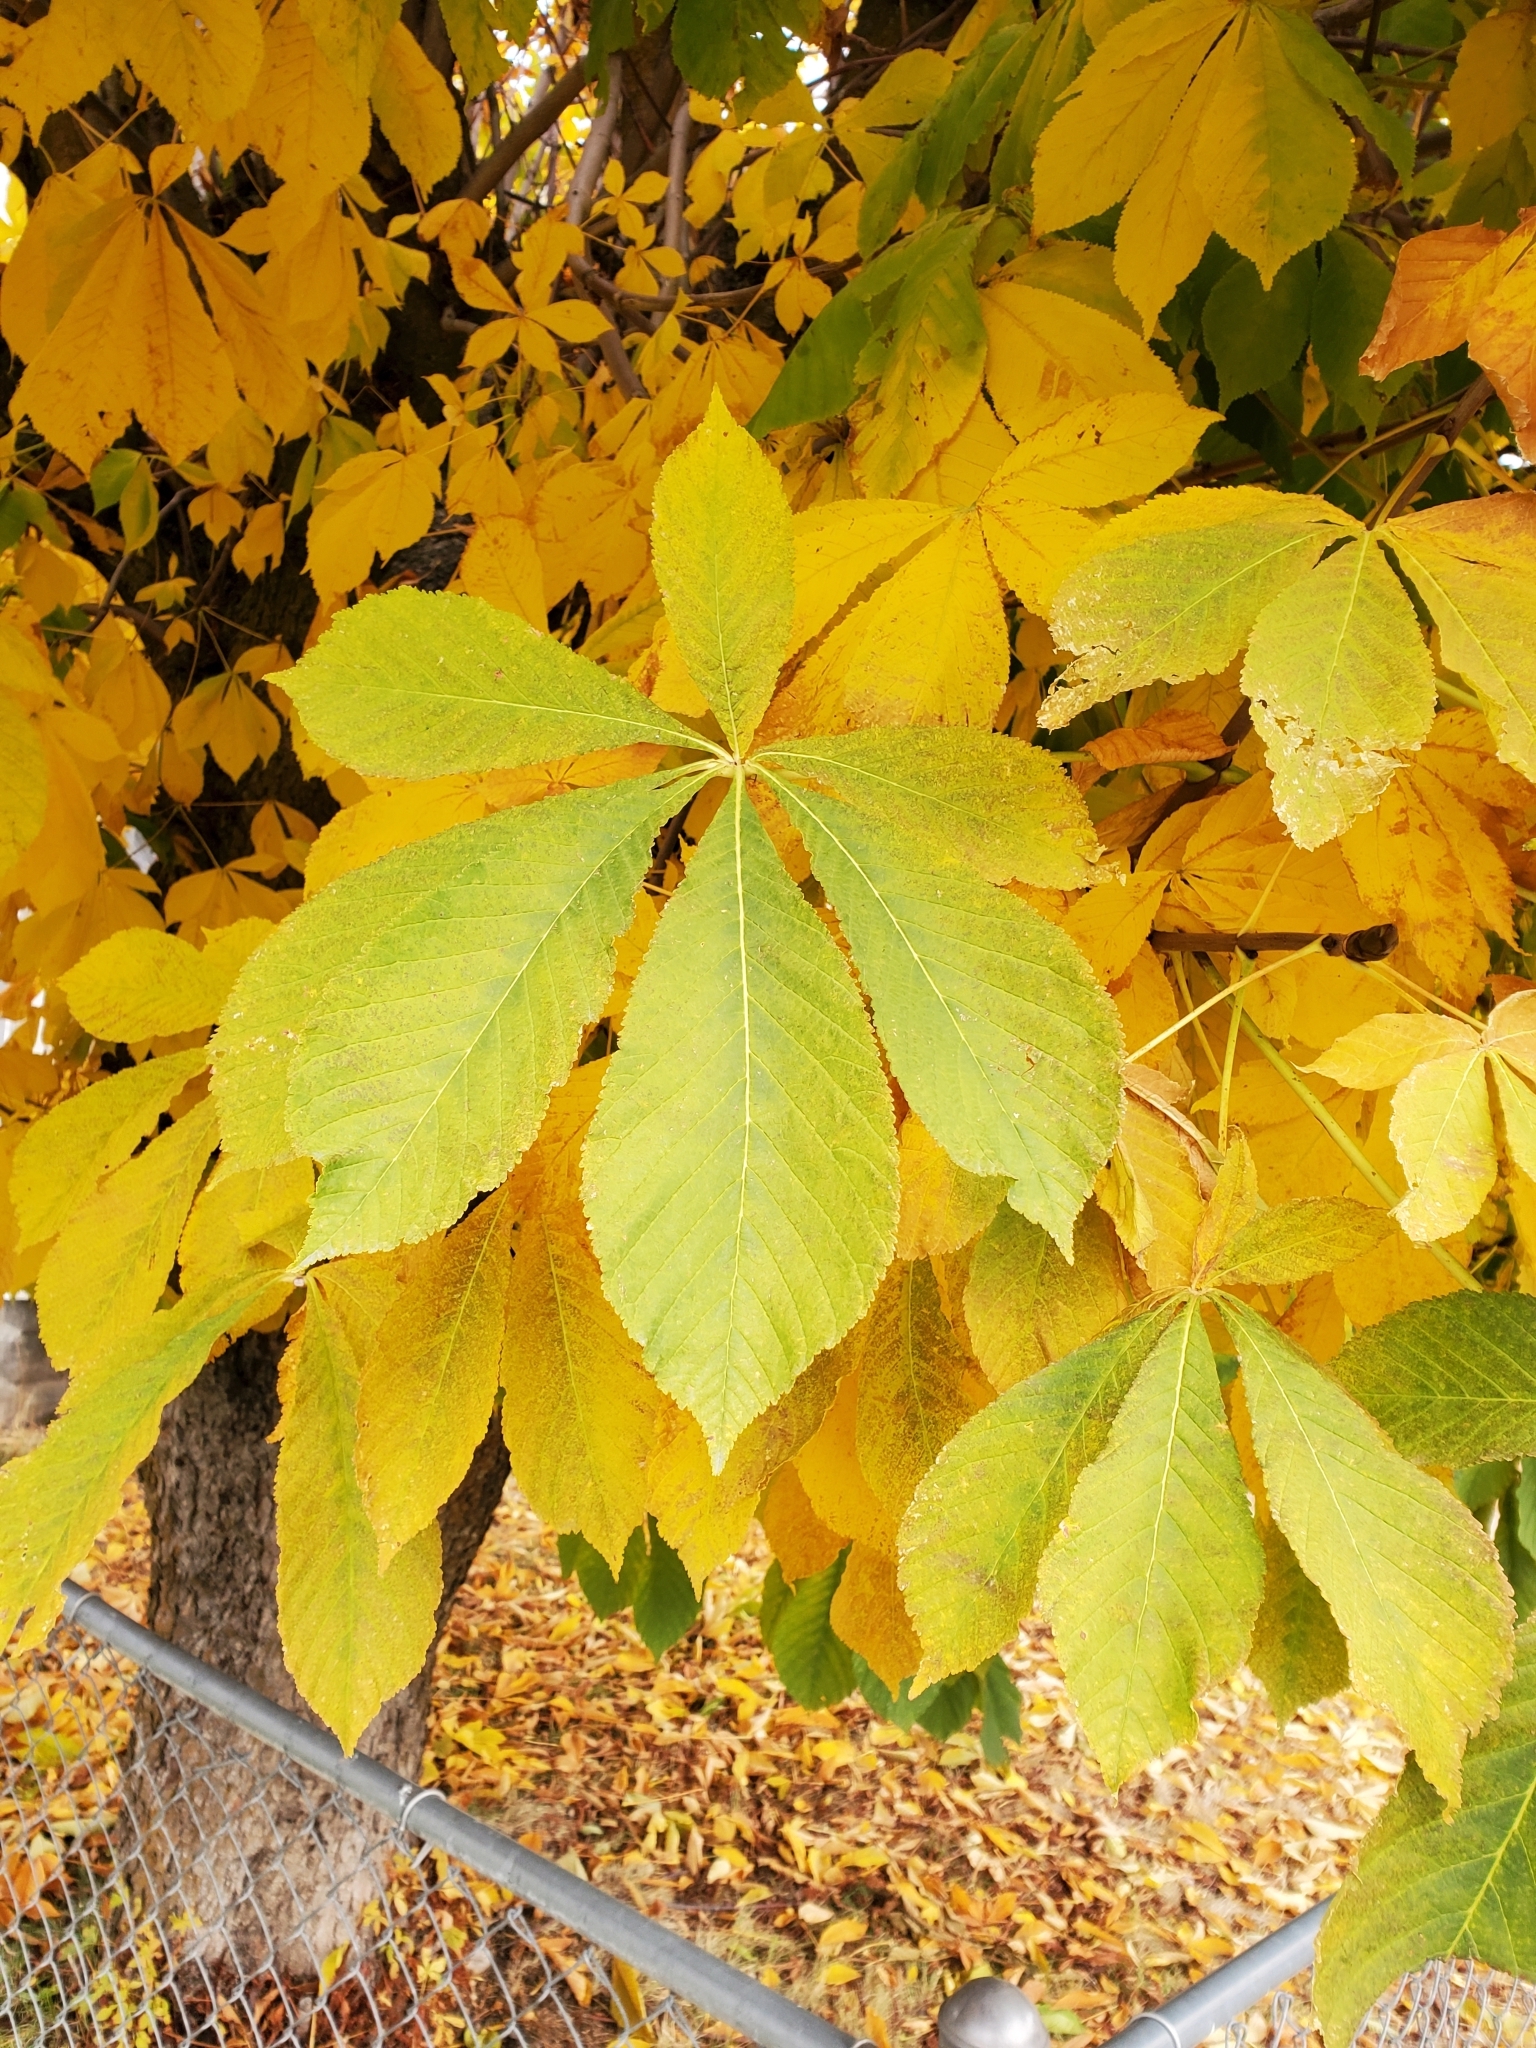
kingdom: Plantae
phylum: Tracheophyta
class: Magnoliopsida
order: Sapindales
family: Sapindaceae
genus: Aesculus
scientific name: Aesculus hippocastanum
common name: Horse-chestnut
